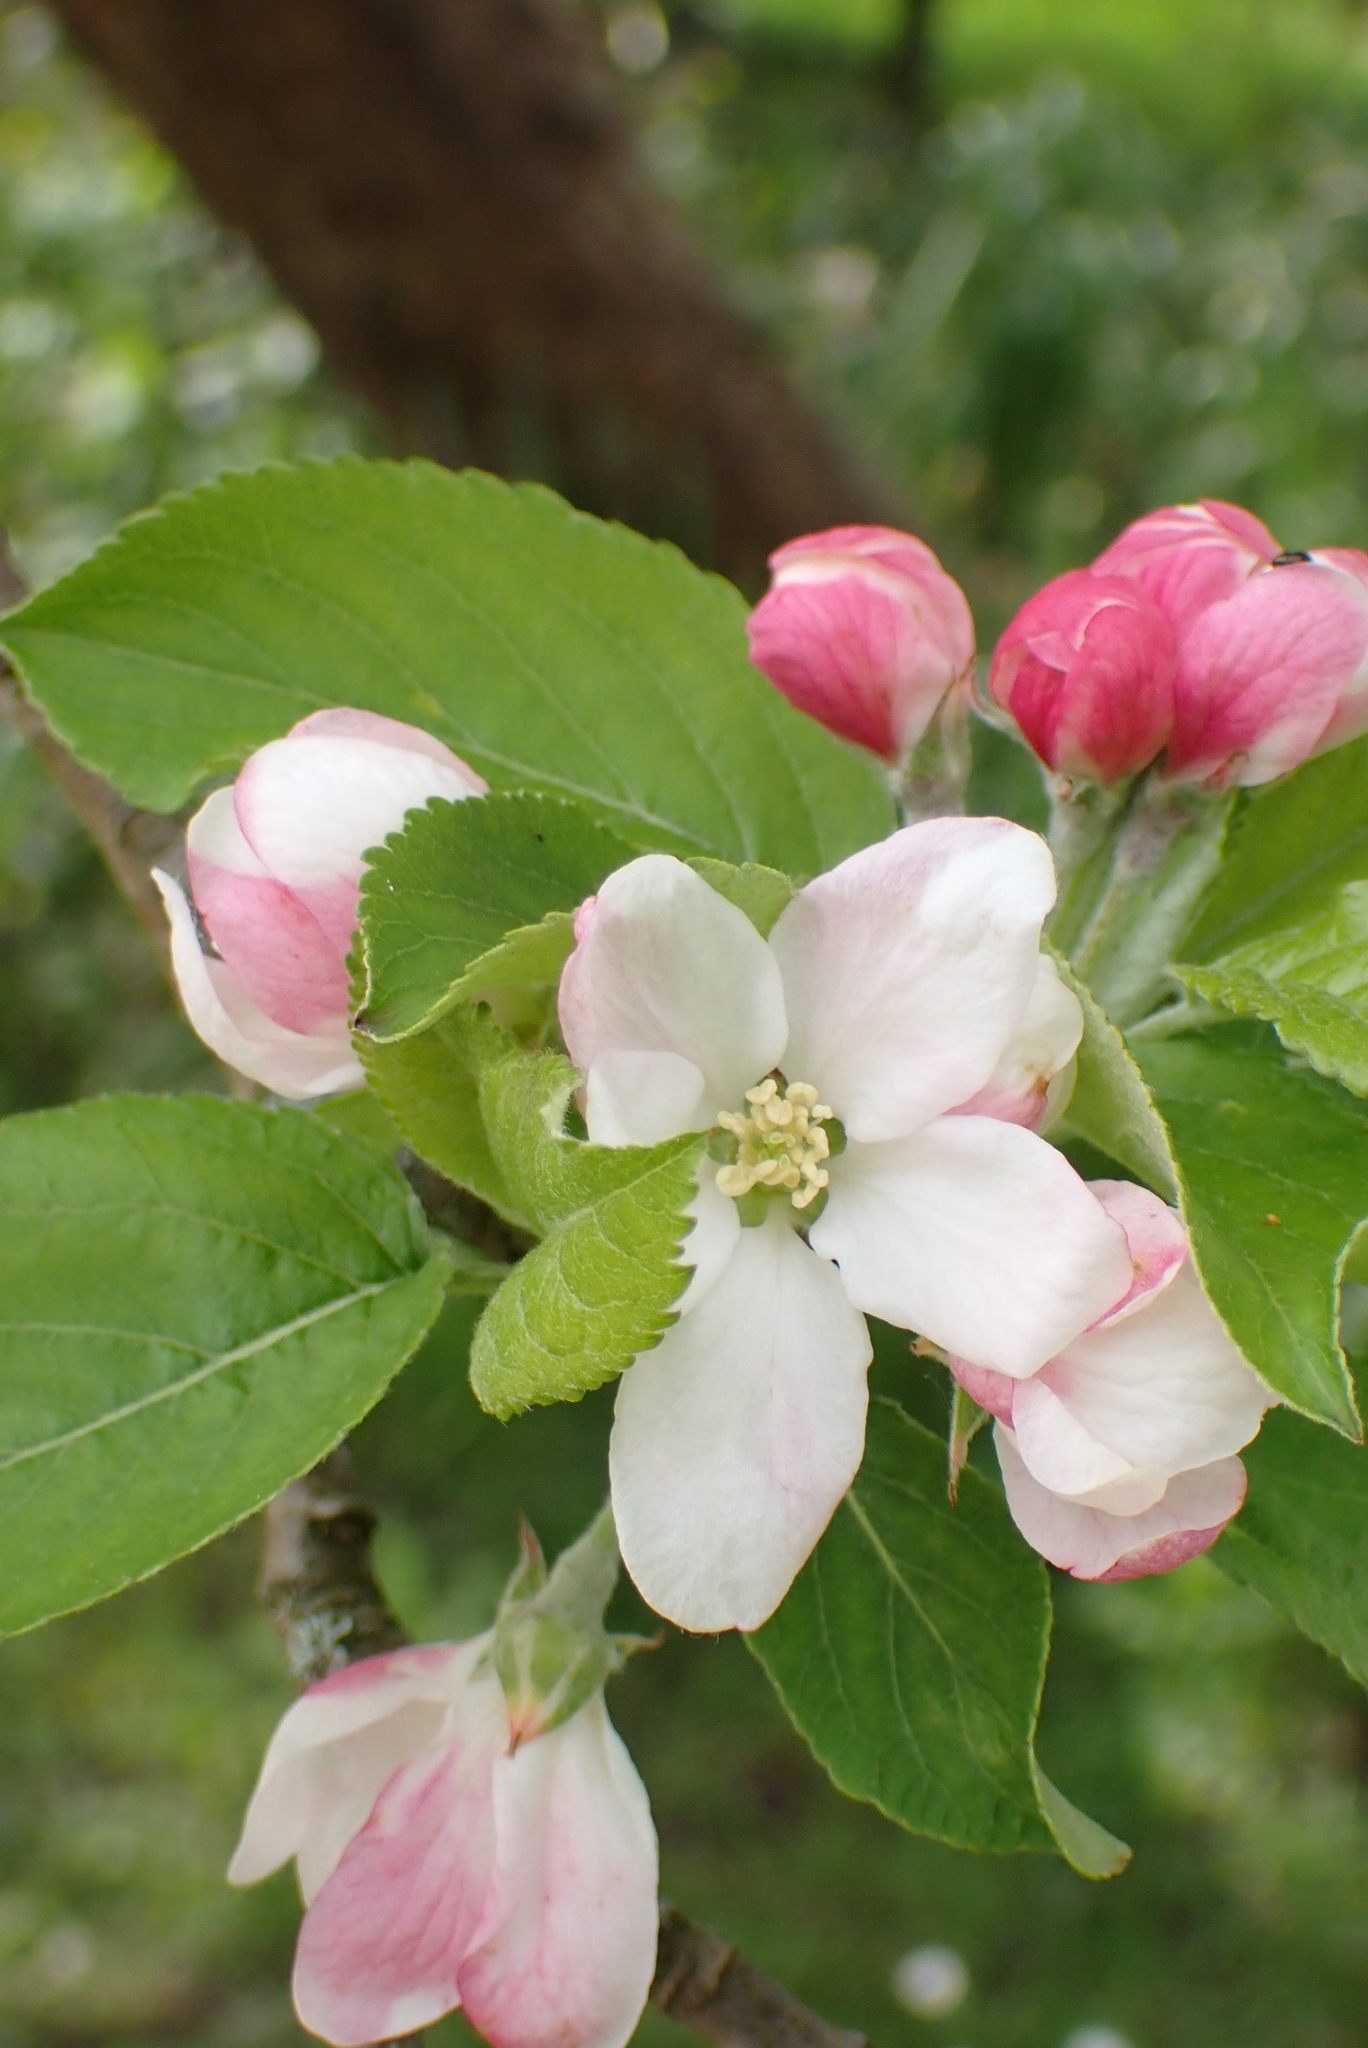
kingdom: Plantae
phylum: Tracheophyta
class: Magnoliopsida
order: Rosales
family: Rosaceae
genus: Malus
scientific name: Malus domestica
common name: Apple
